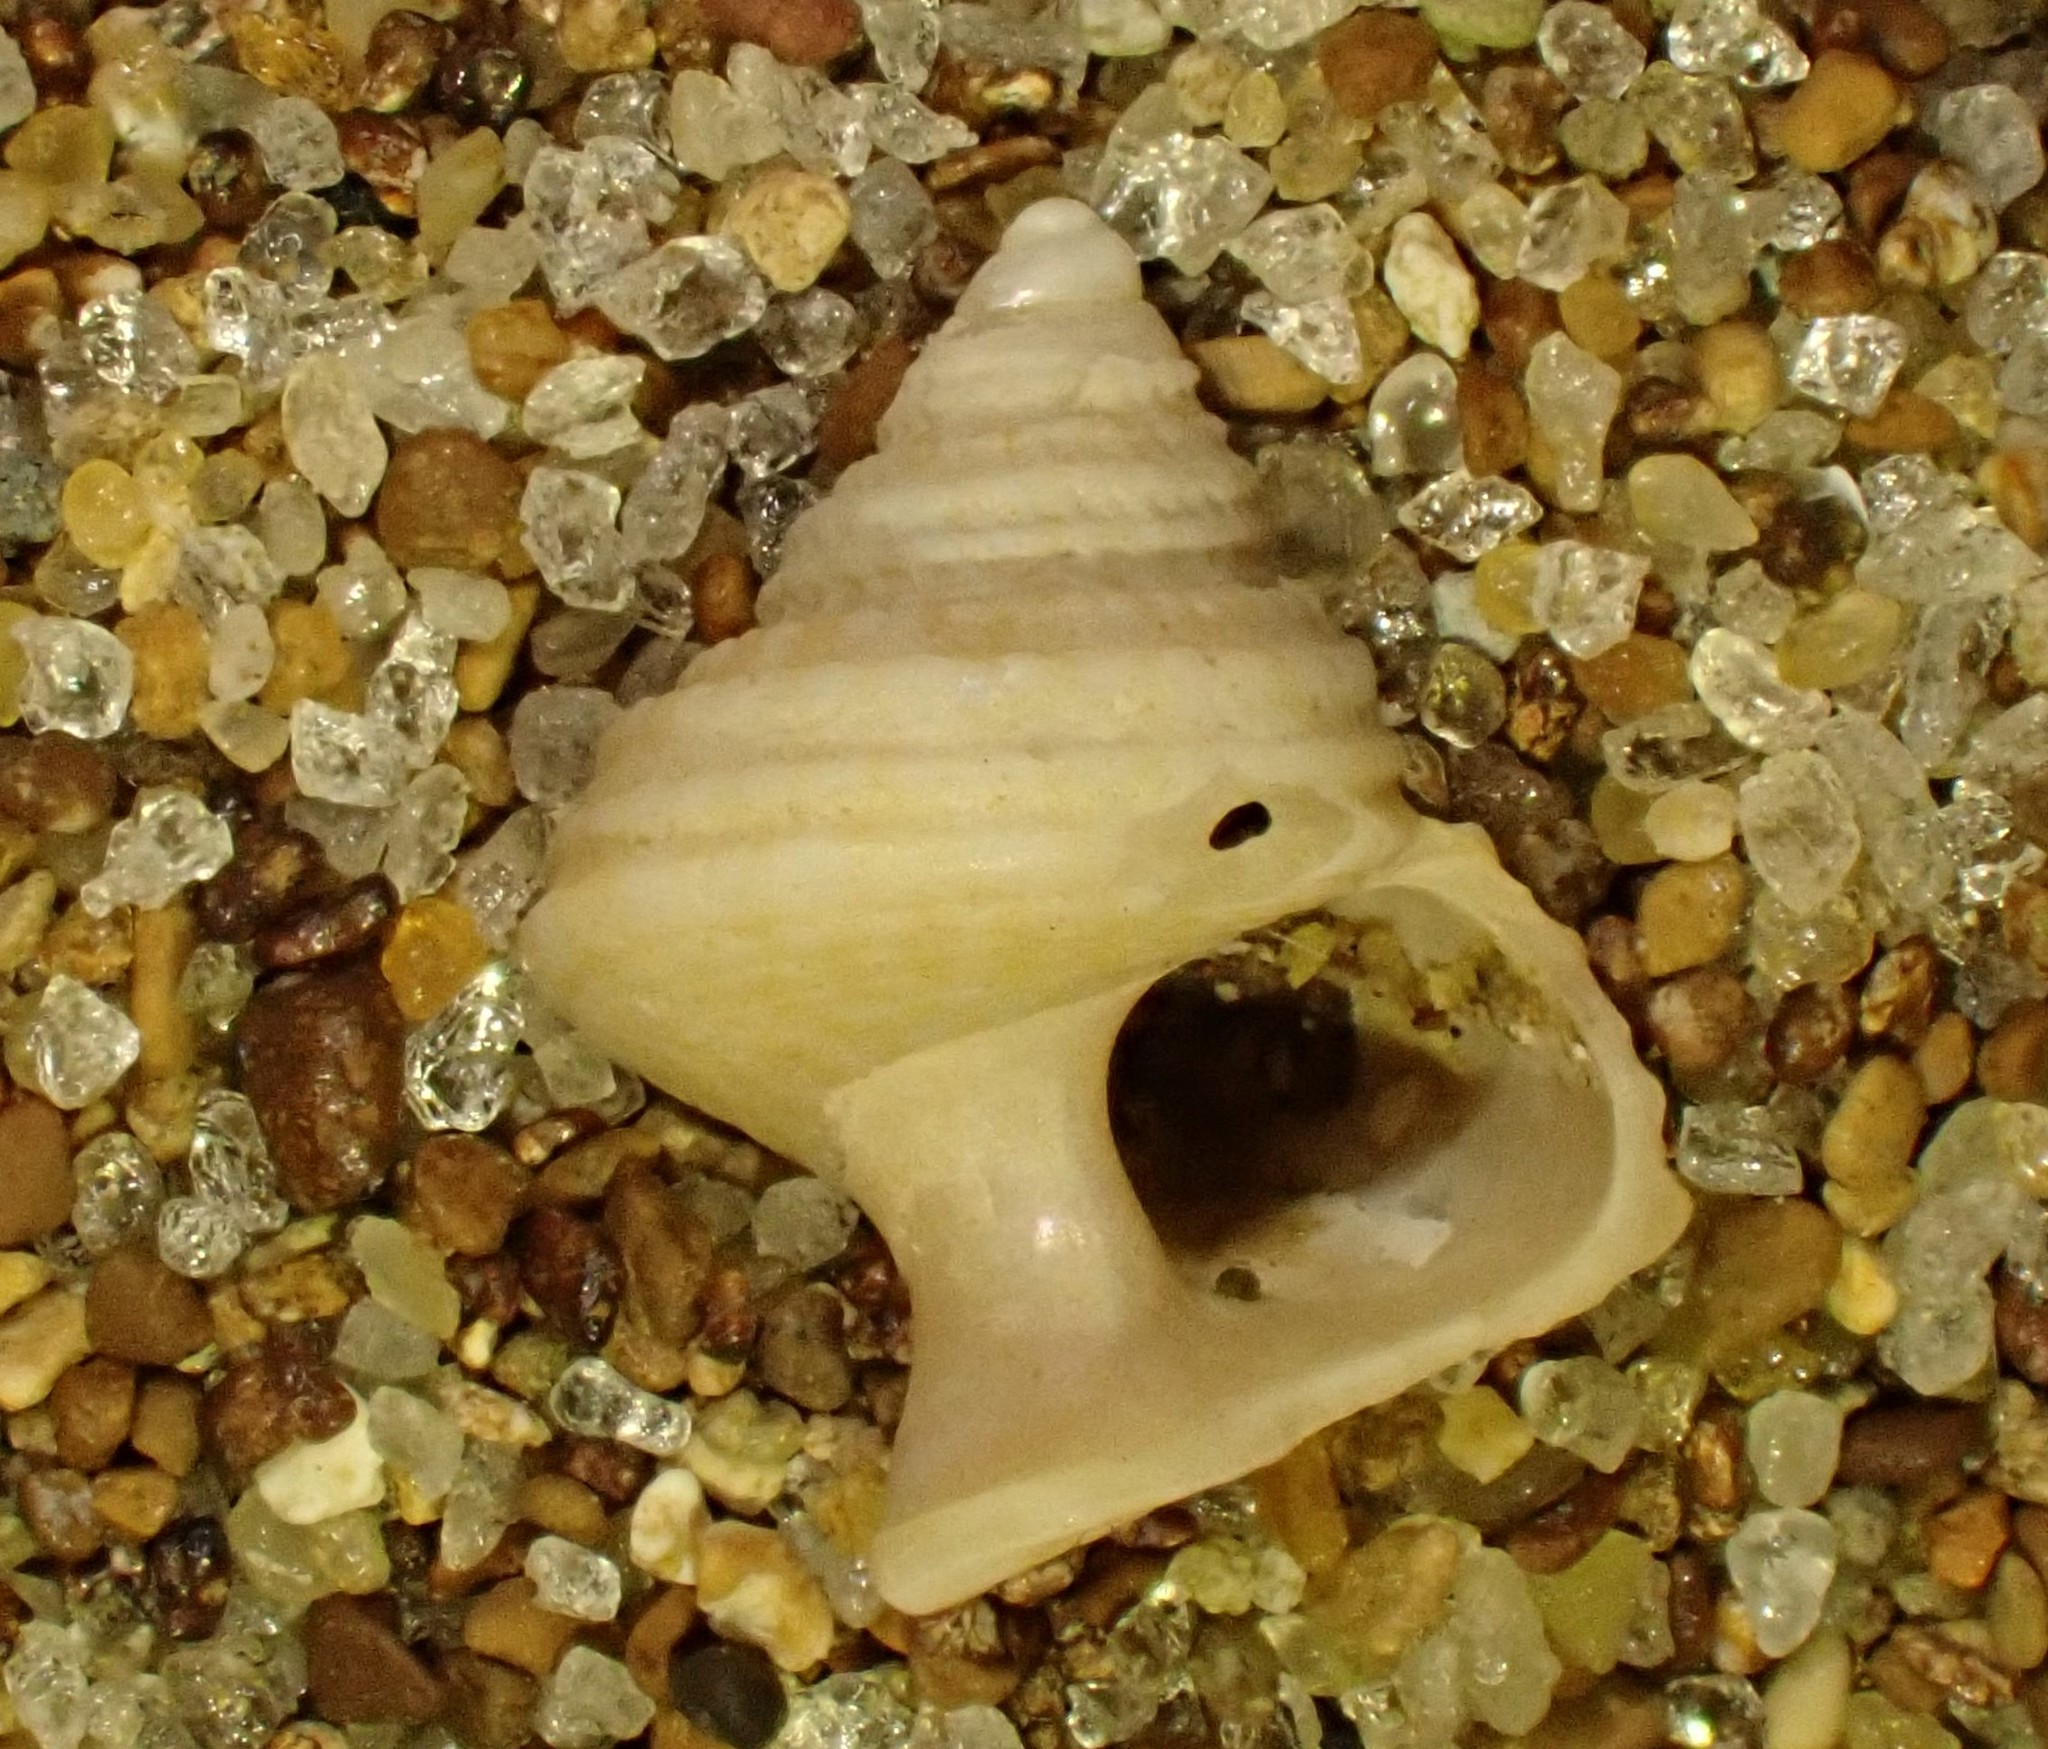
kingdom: Animalia
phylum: Mollusca
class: Gastropoda
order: Trochida
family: Calliostomatidae
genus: Maurea
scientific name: Maurea punctulata
